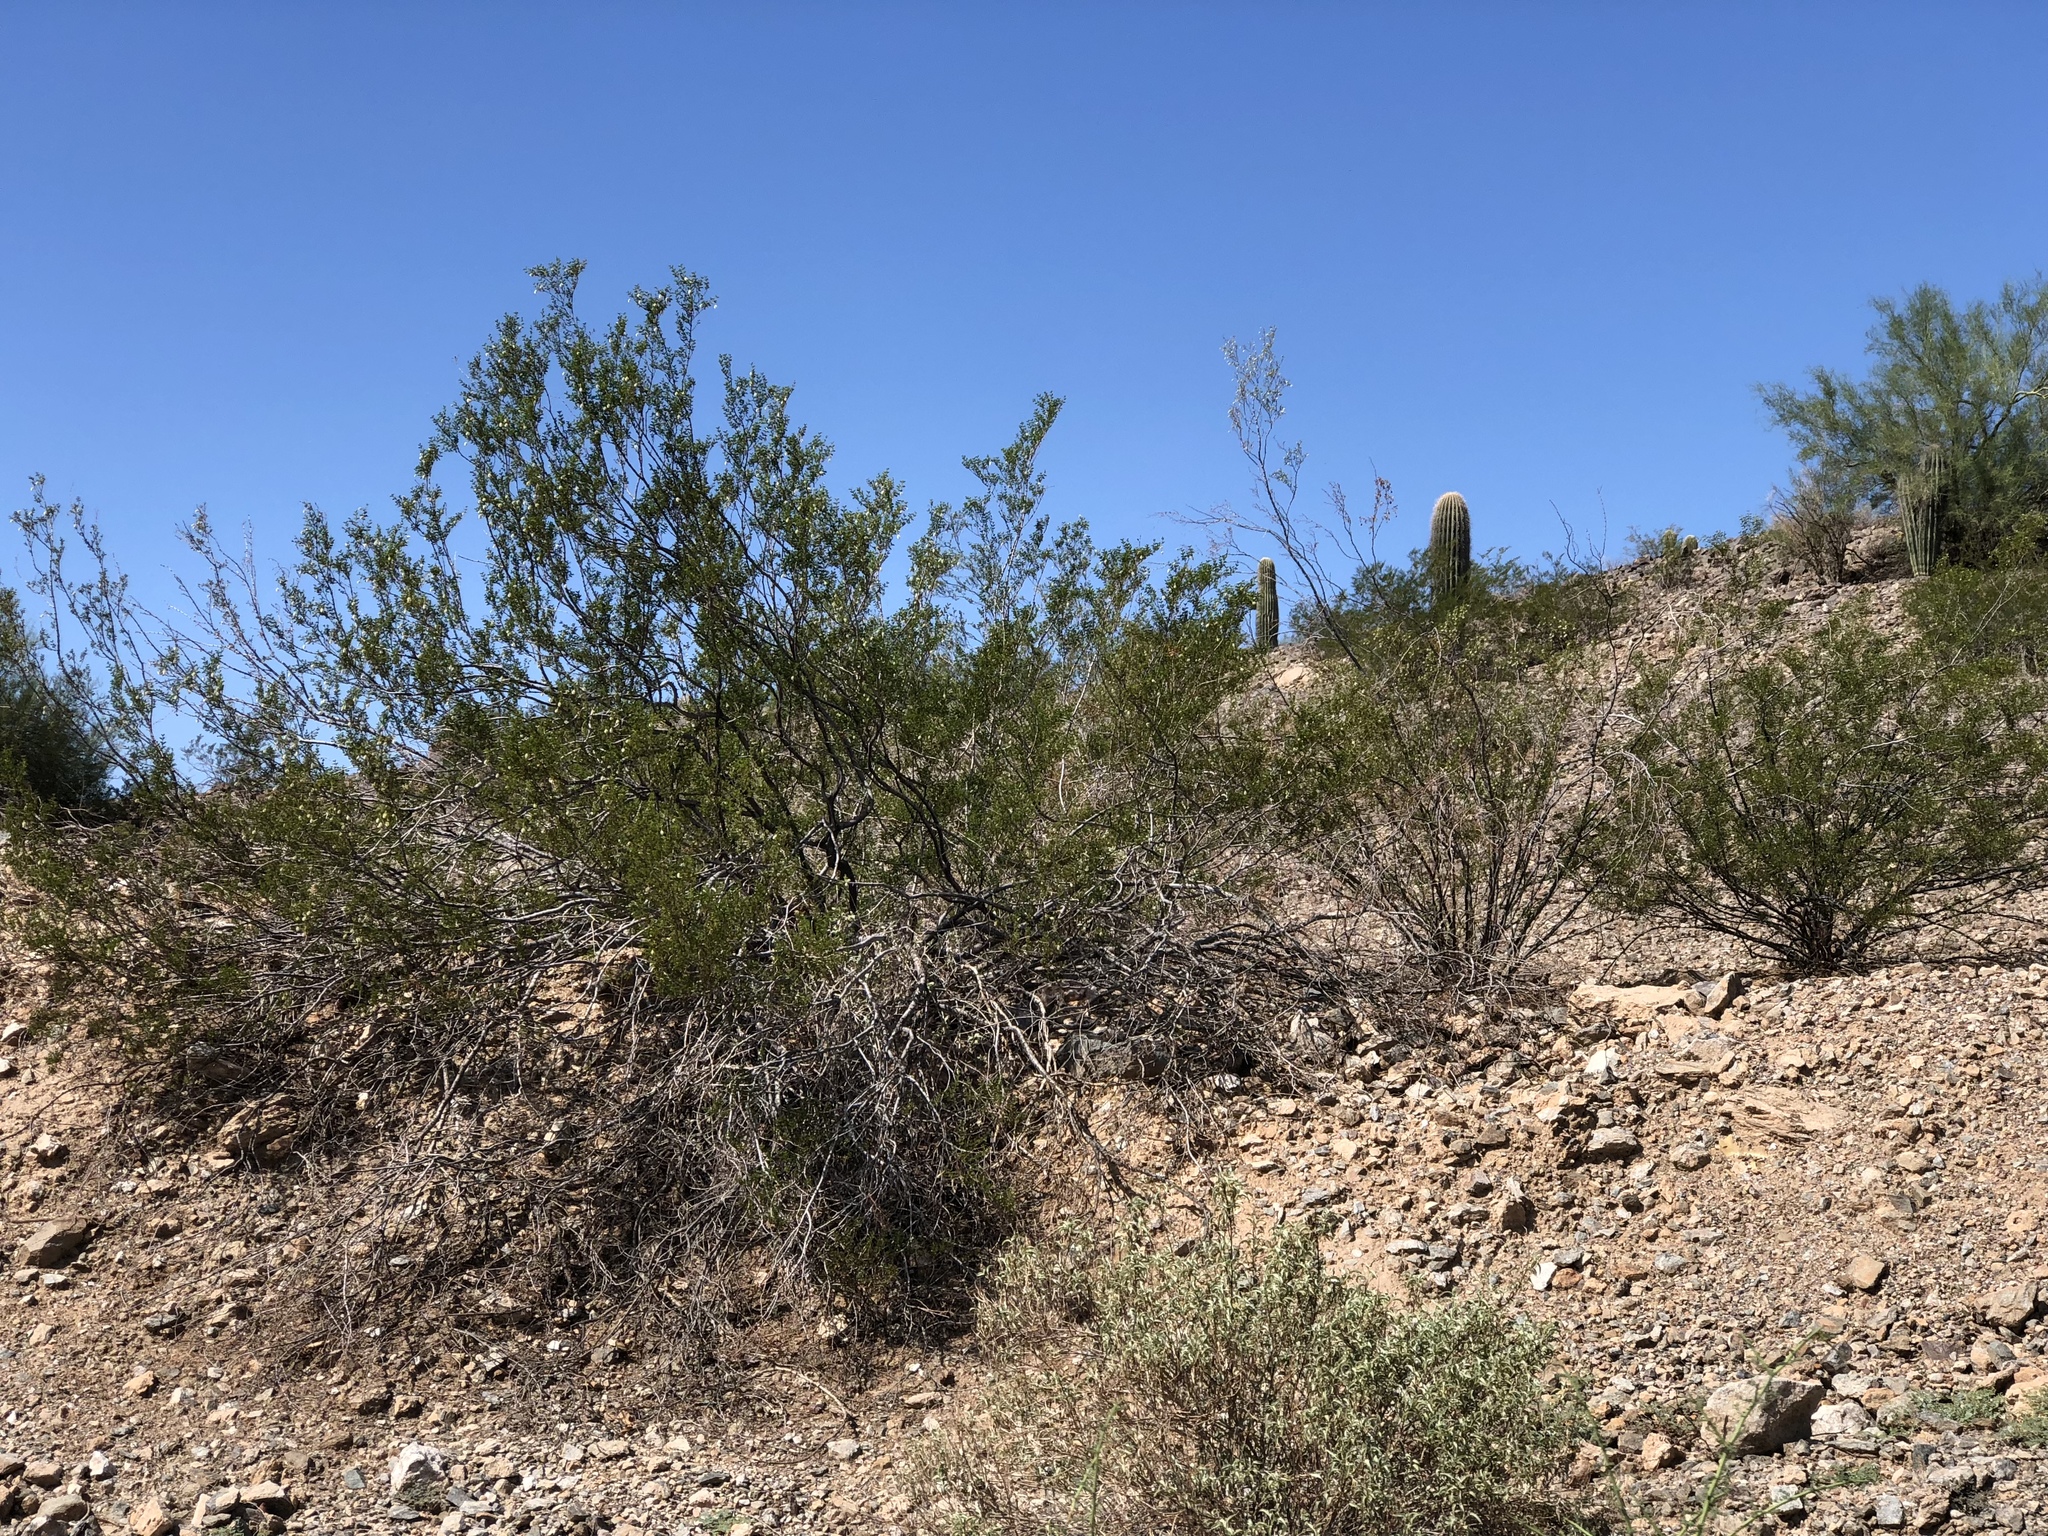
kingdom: Plantae
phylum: Tracheophyta
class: Magnoliopsida
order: Zygophyllales
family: Zygophyllaceae
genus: Larrea
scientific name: Larrea tridentata
